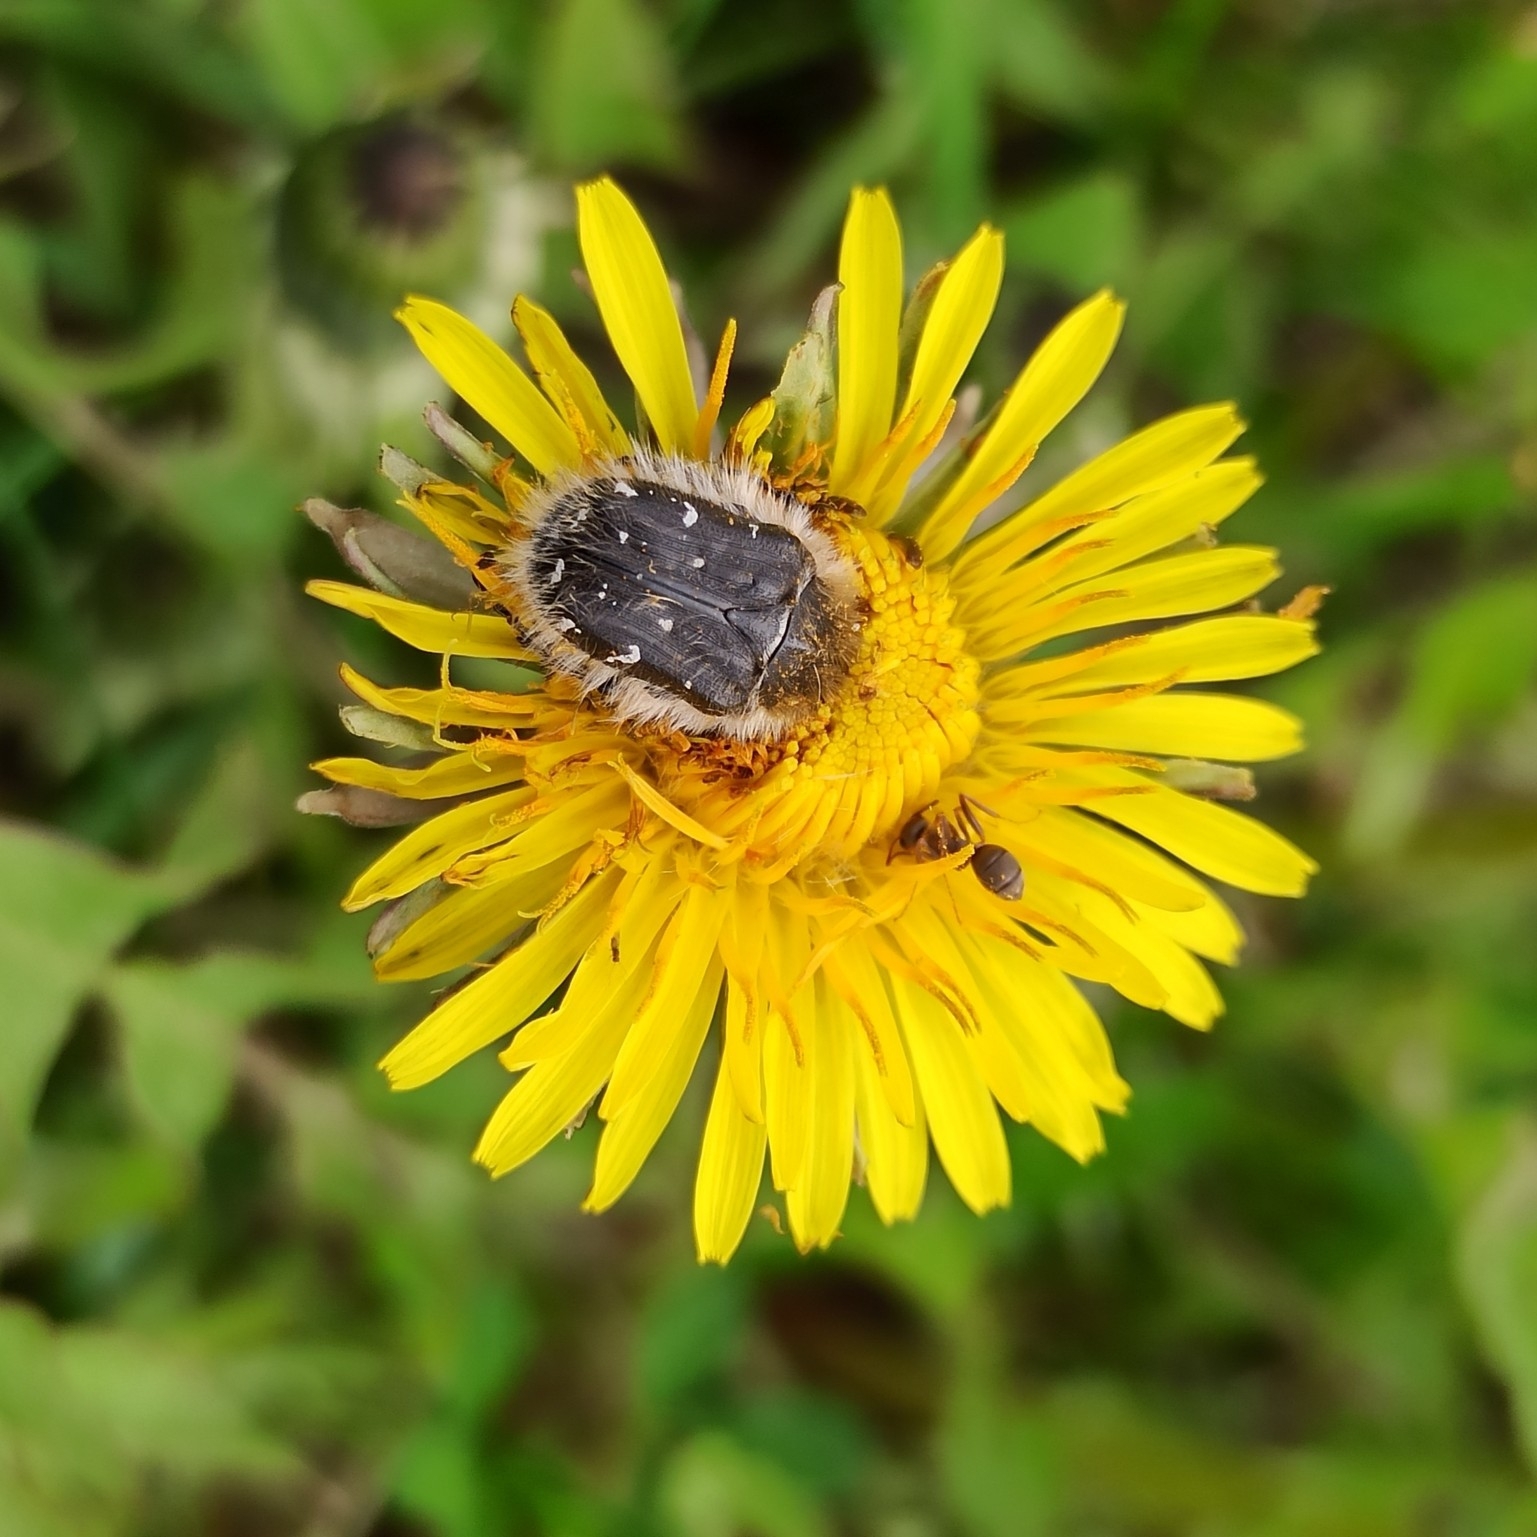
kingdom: Animalia
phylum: Arthropoda
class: Insecta
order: Coleoptera
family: Scarabaeidae
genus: Tropinota
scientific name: Tropinota hirta
